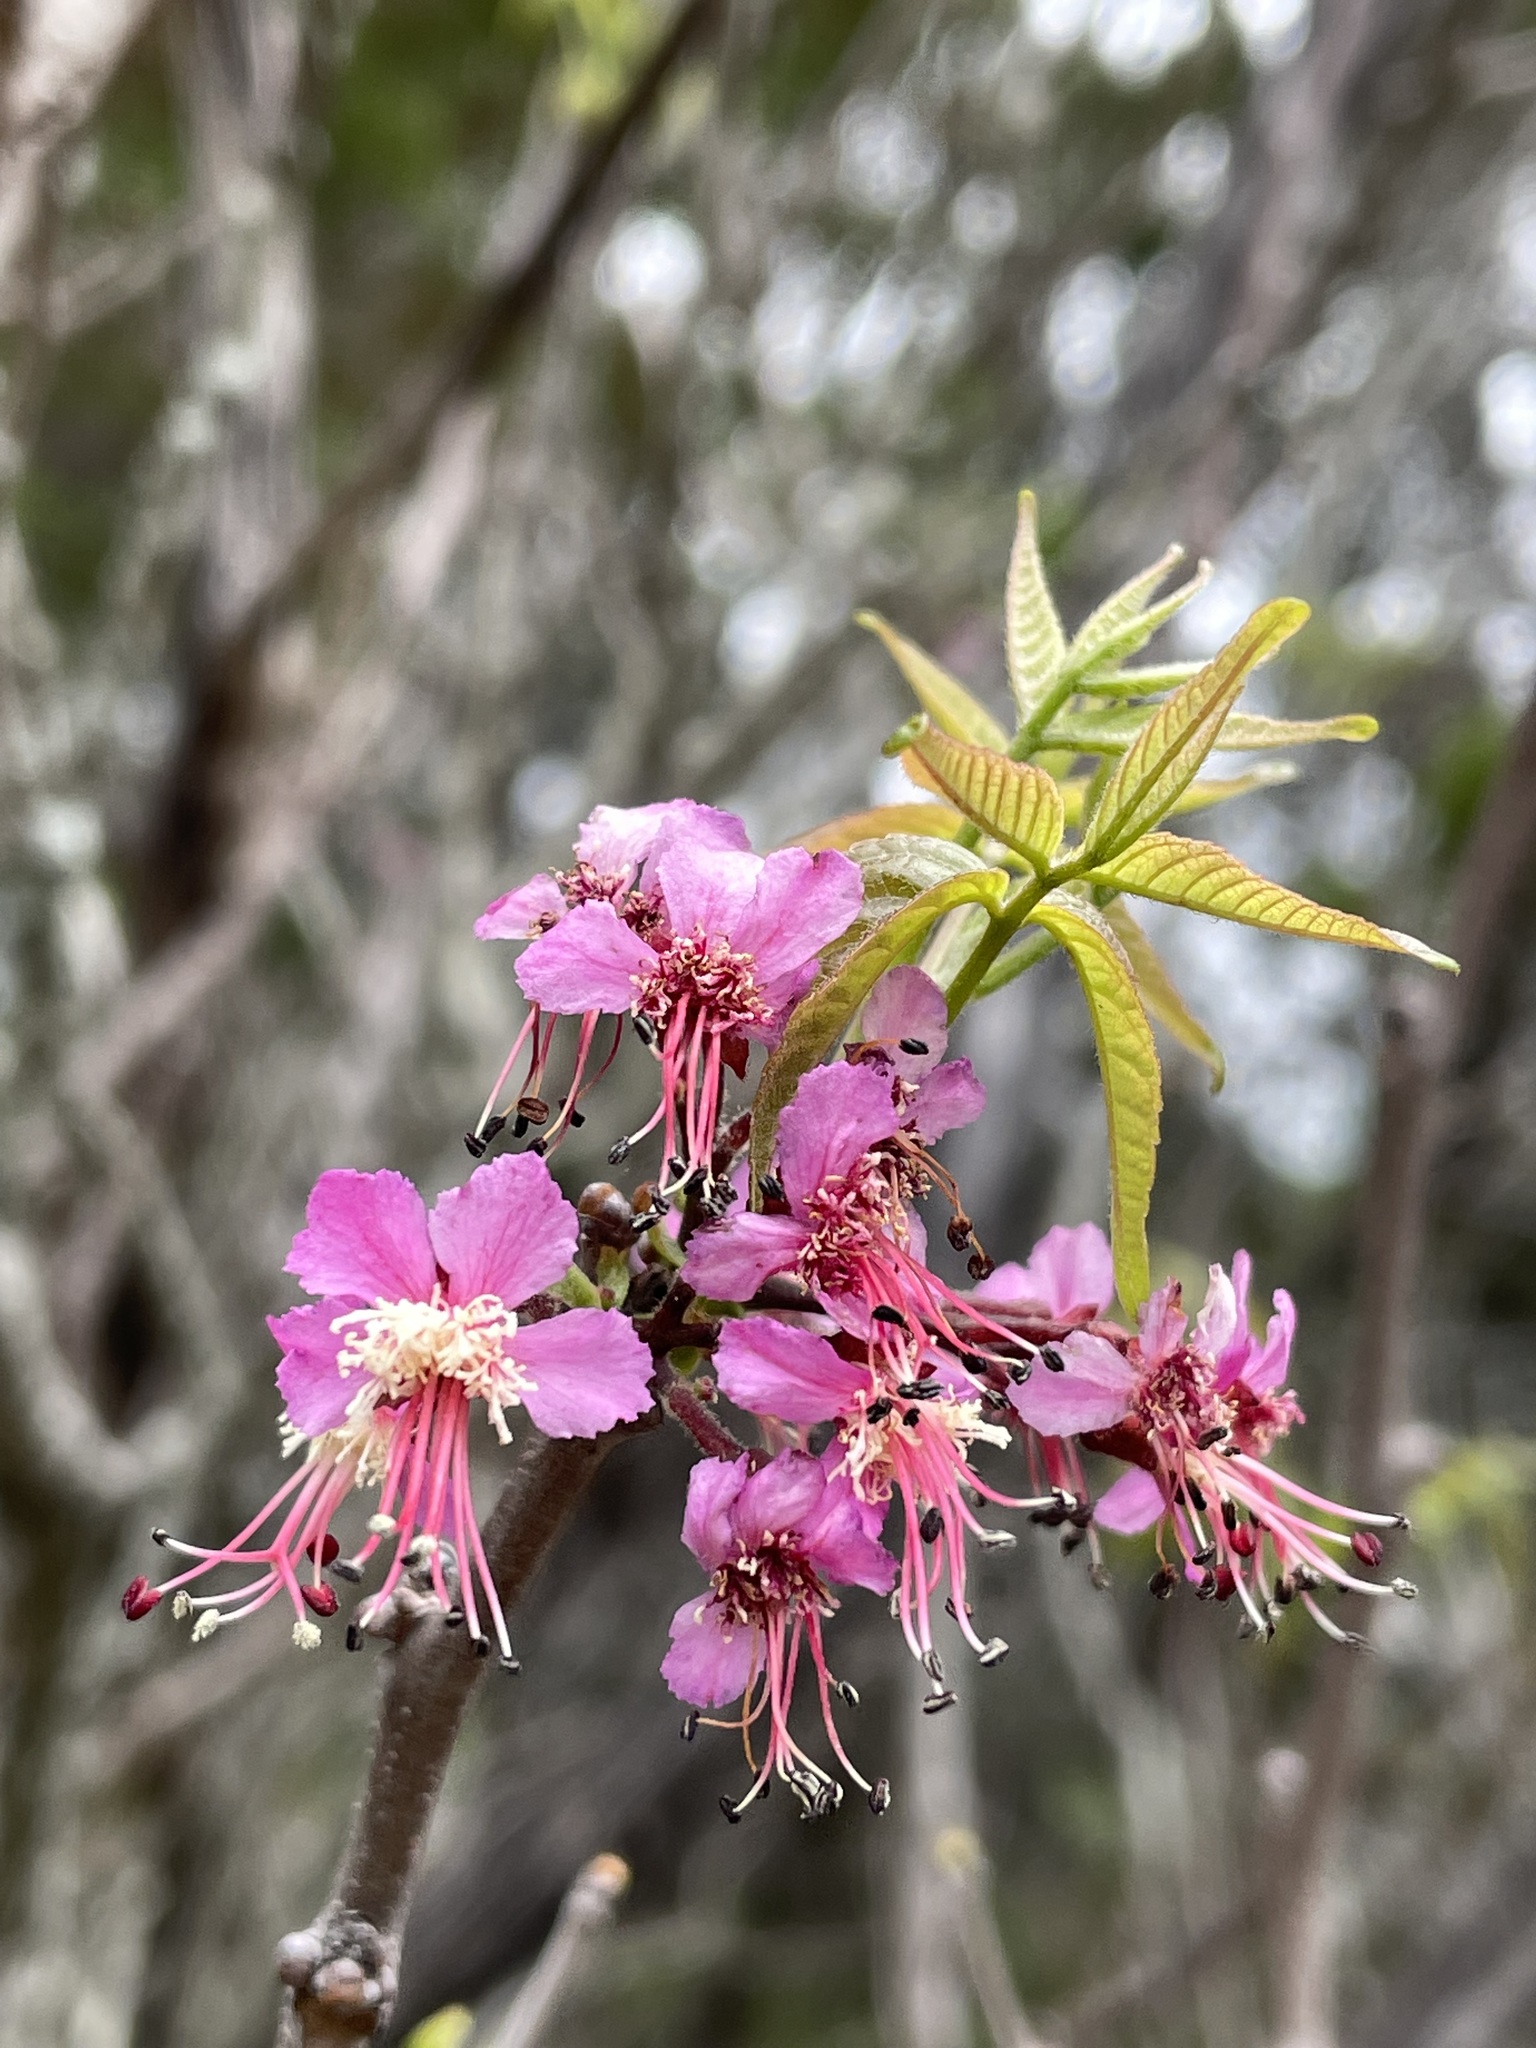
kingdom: Plantae
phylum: Tracheophyta
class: Magnoliopsida
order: Sapindales
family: Sapindaceae
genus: Ungnadia
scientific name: Ungnadia speciosa
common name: Texas-buckeye
